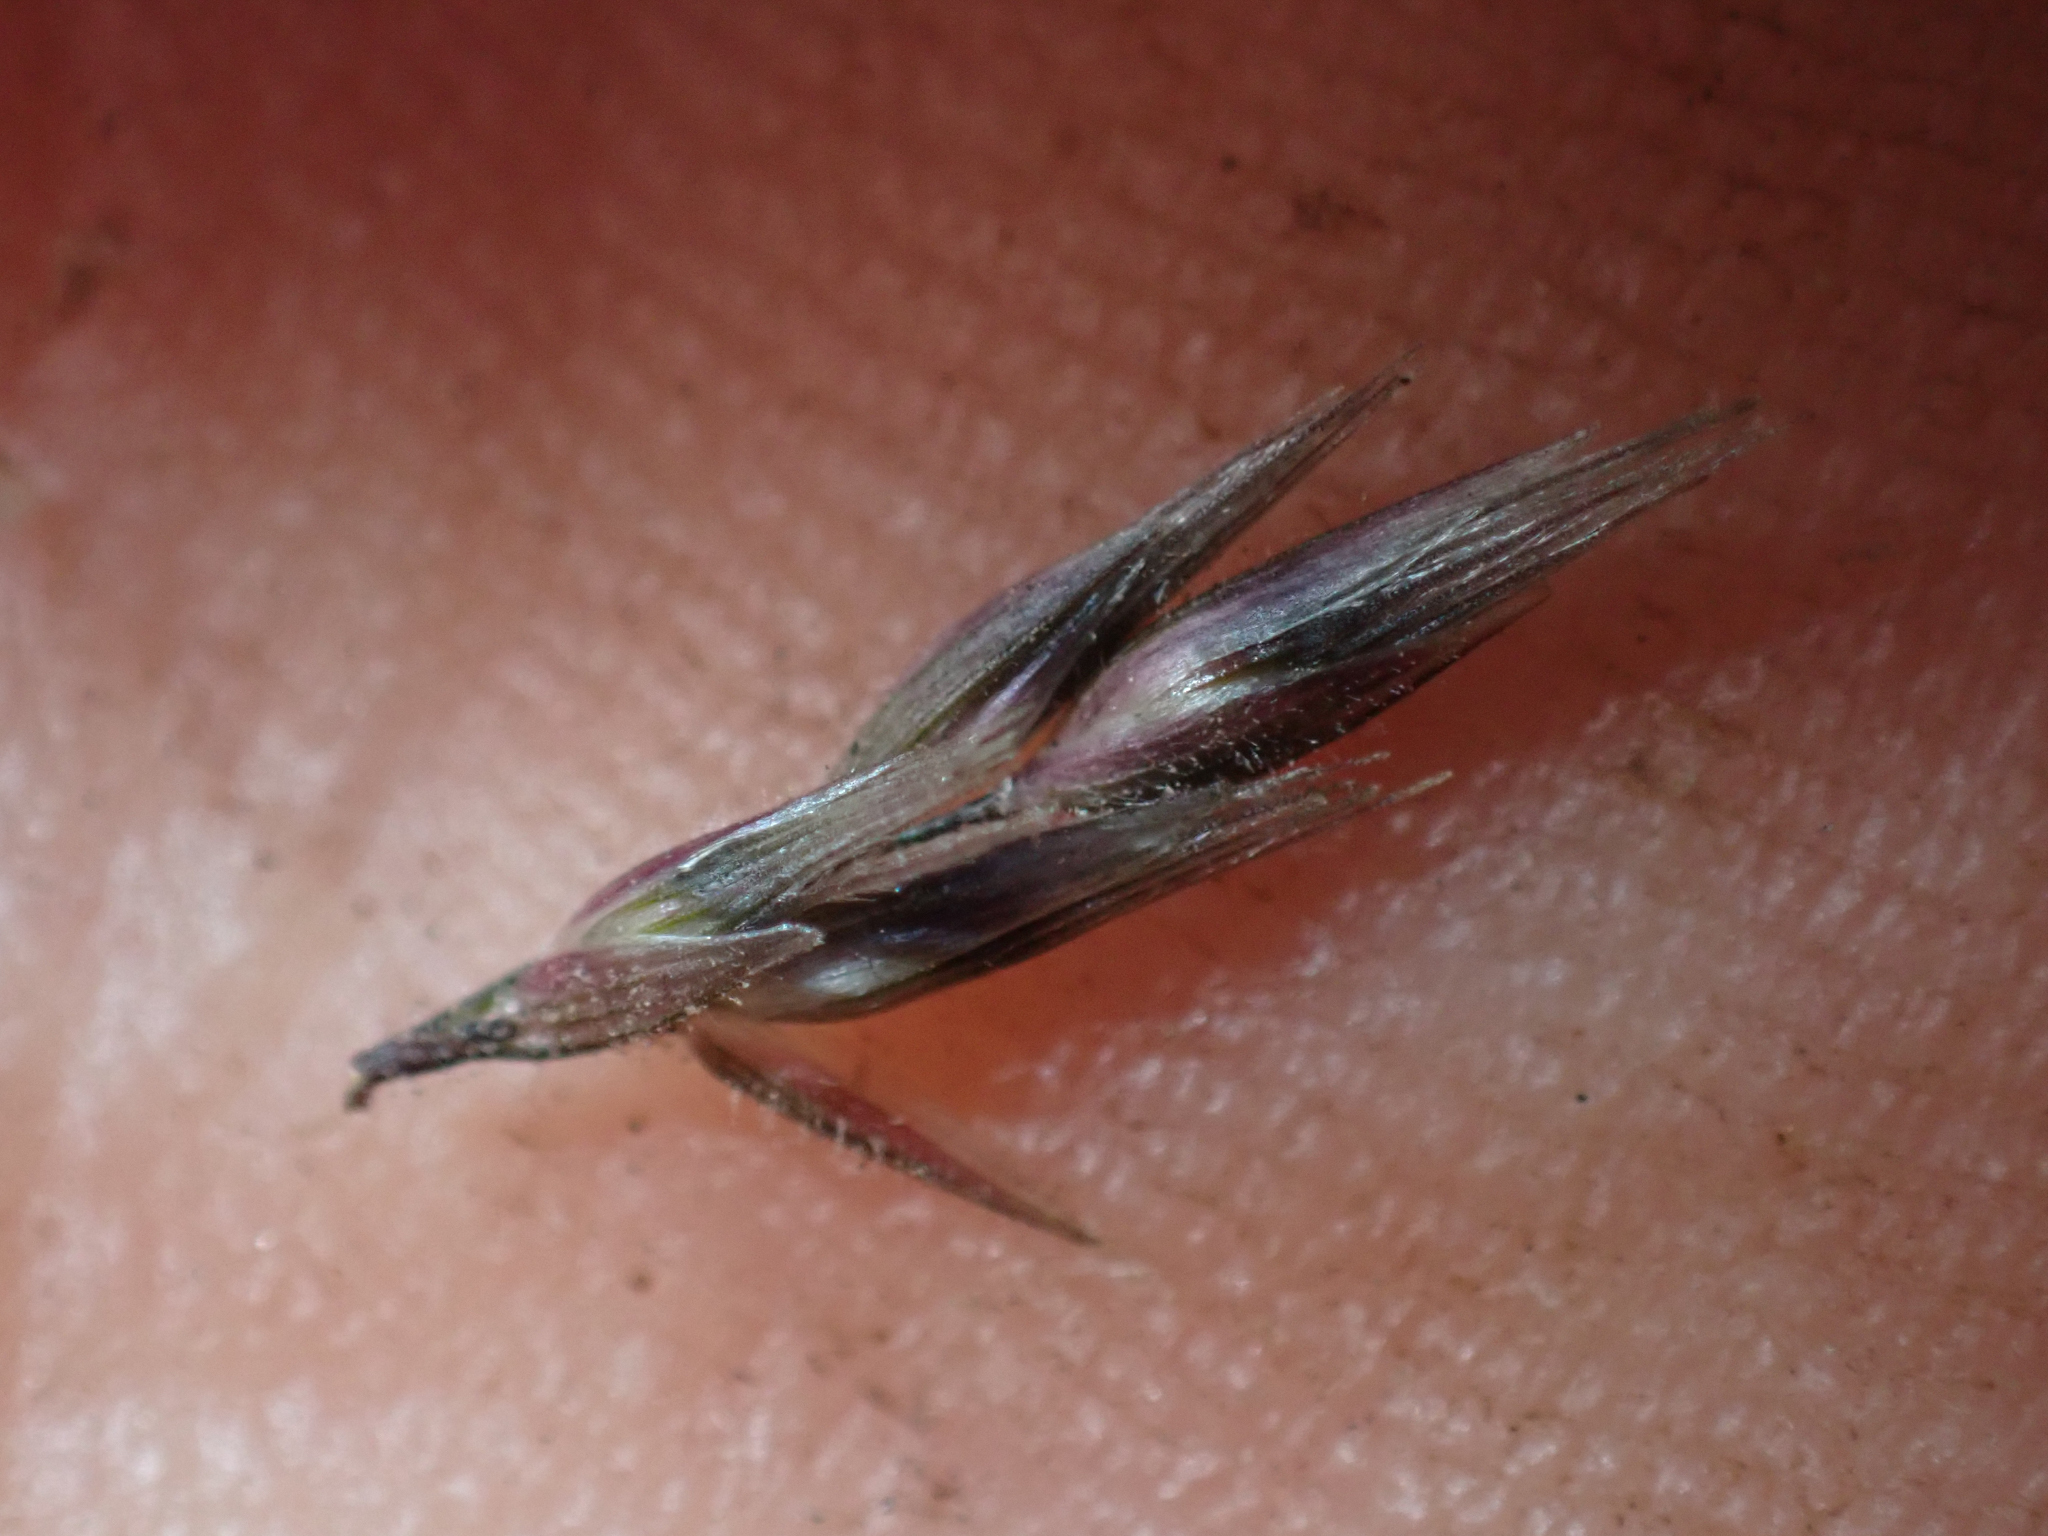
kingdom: Plantae
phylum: Tracheophyta
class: Liliopsida
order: Poales
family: Poaceae
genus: Enneapogon
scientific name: Enneapogon desvauxii
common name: Feather pappus grass
